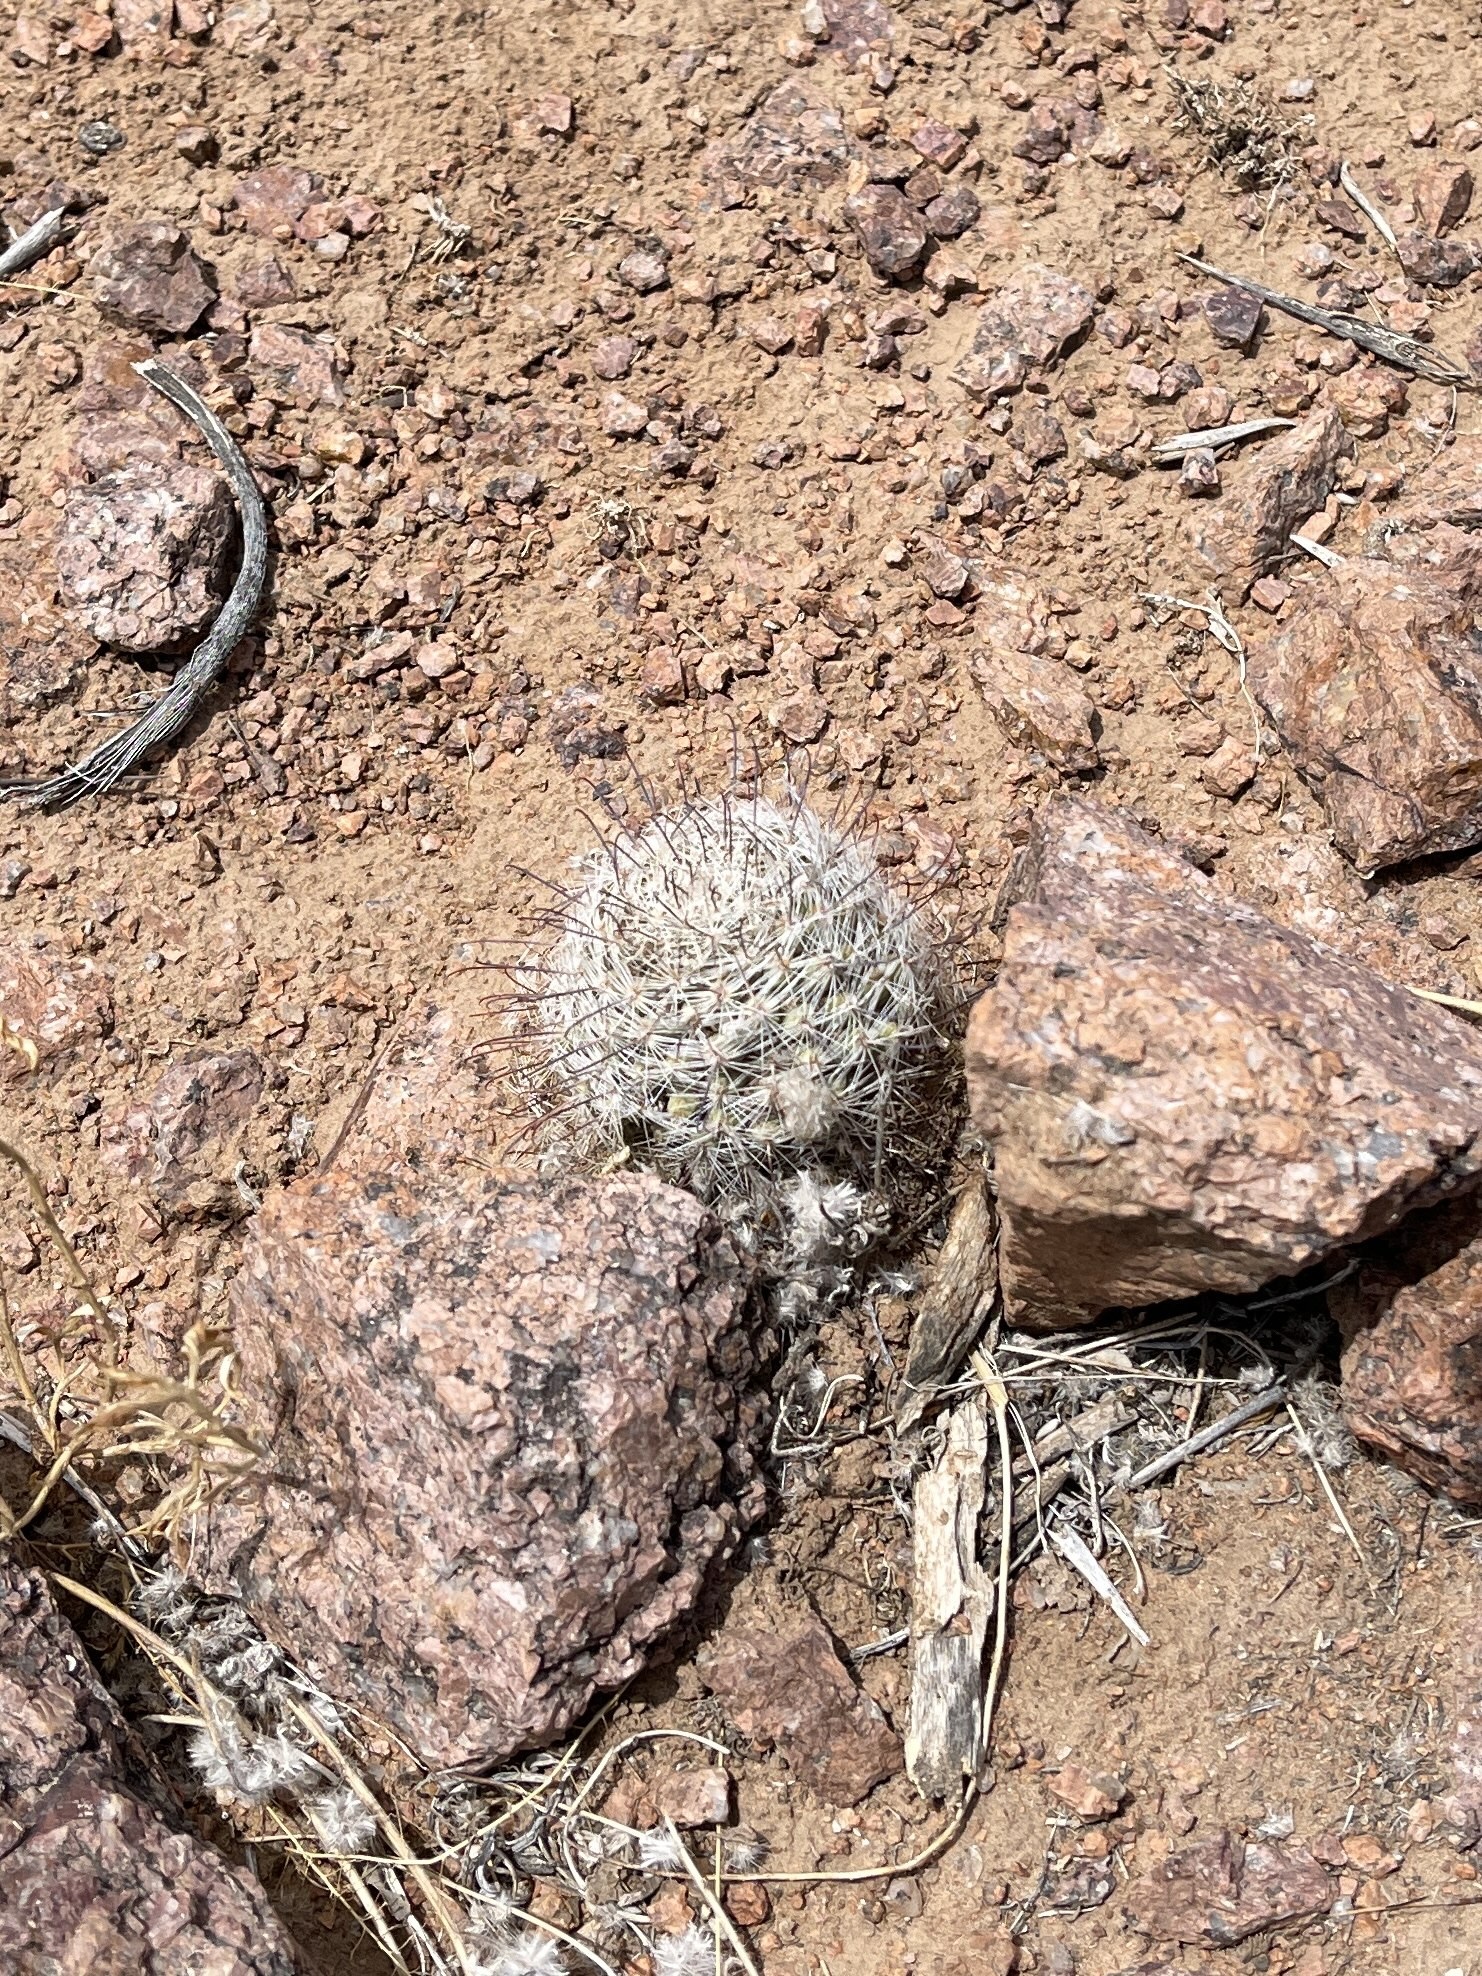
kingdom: Plantae
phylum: Tracheophyta
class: Magnoliopsida
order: Caryophyllales
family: Cactaceae
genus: Cochemiea
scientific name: Cochemiea grahamii
